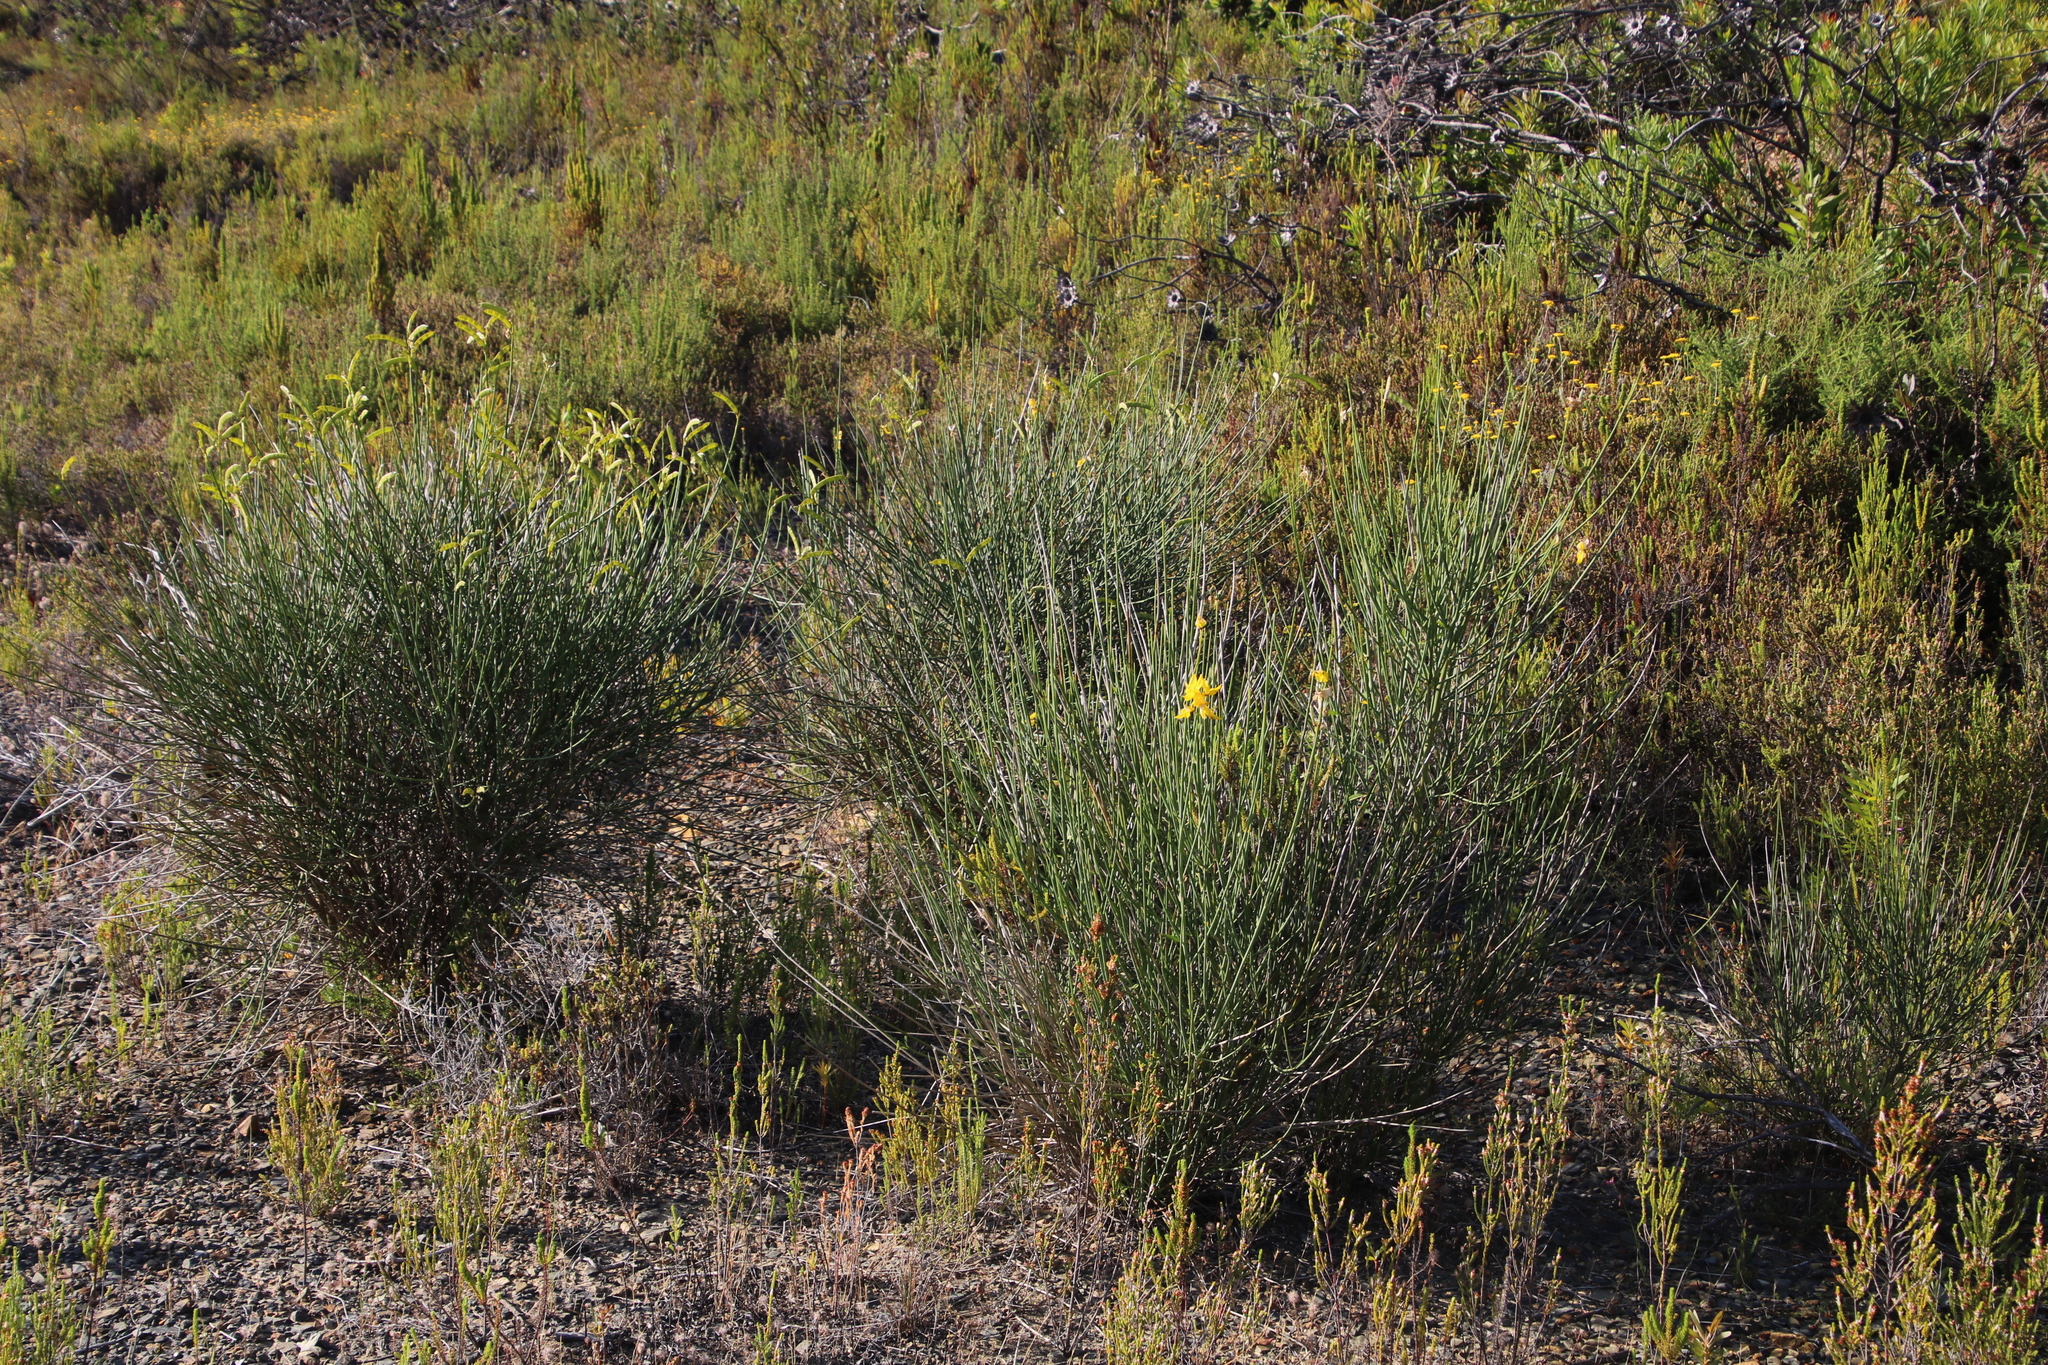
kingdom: Plantae
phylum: Tracheophyta
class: Magnoliopsida
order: Fabales
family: Fabaceae
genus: Spartium
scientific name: Spartium junceum
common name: Spanish broom
